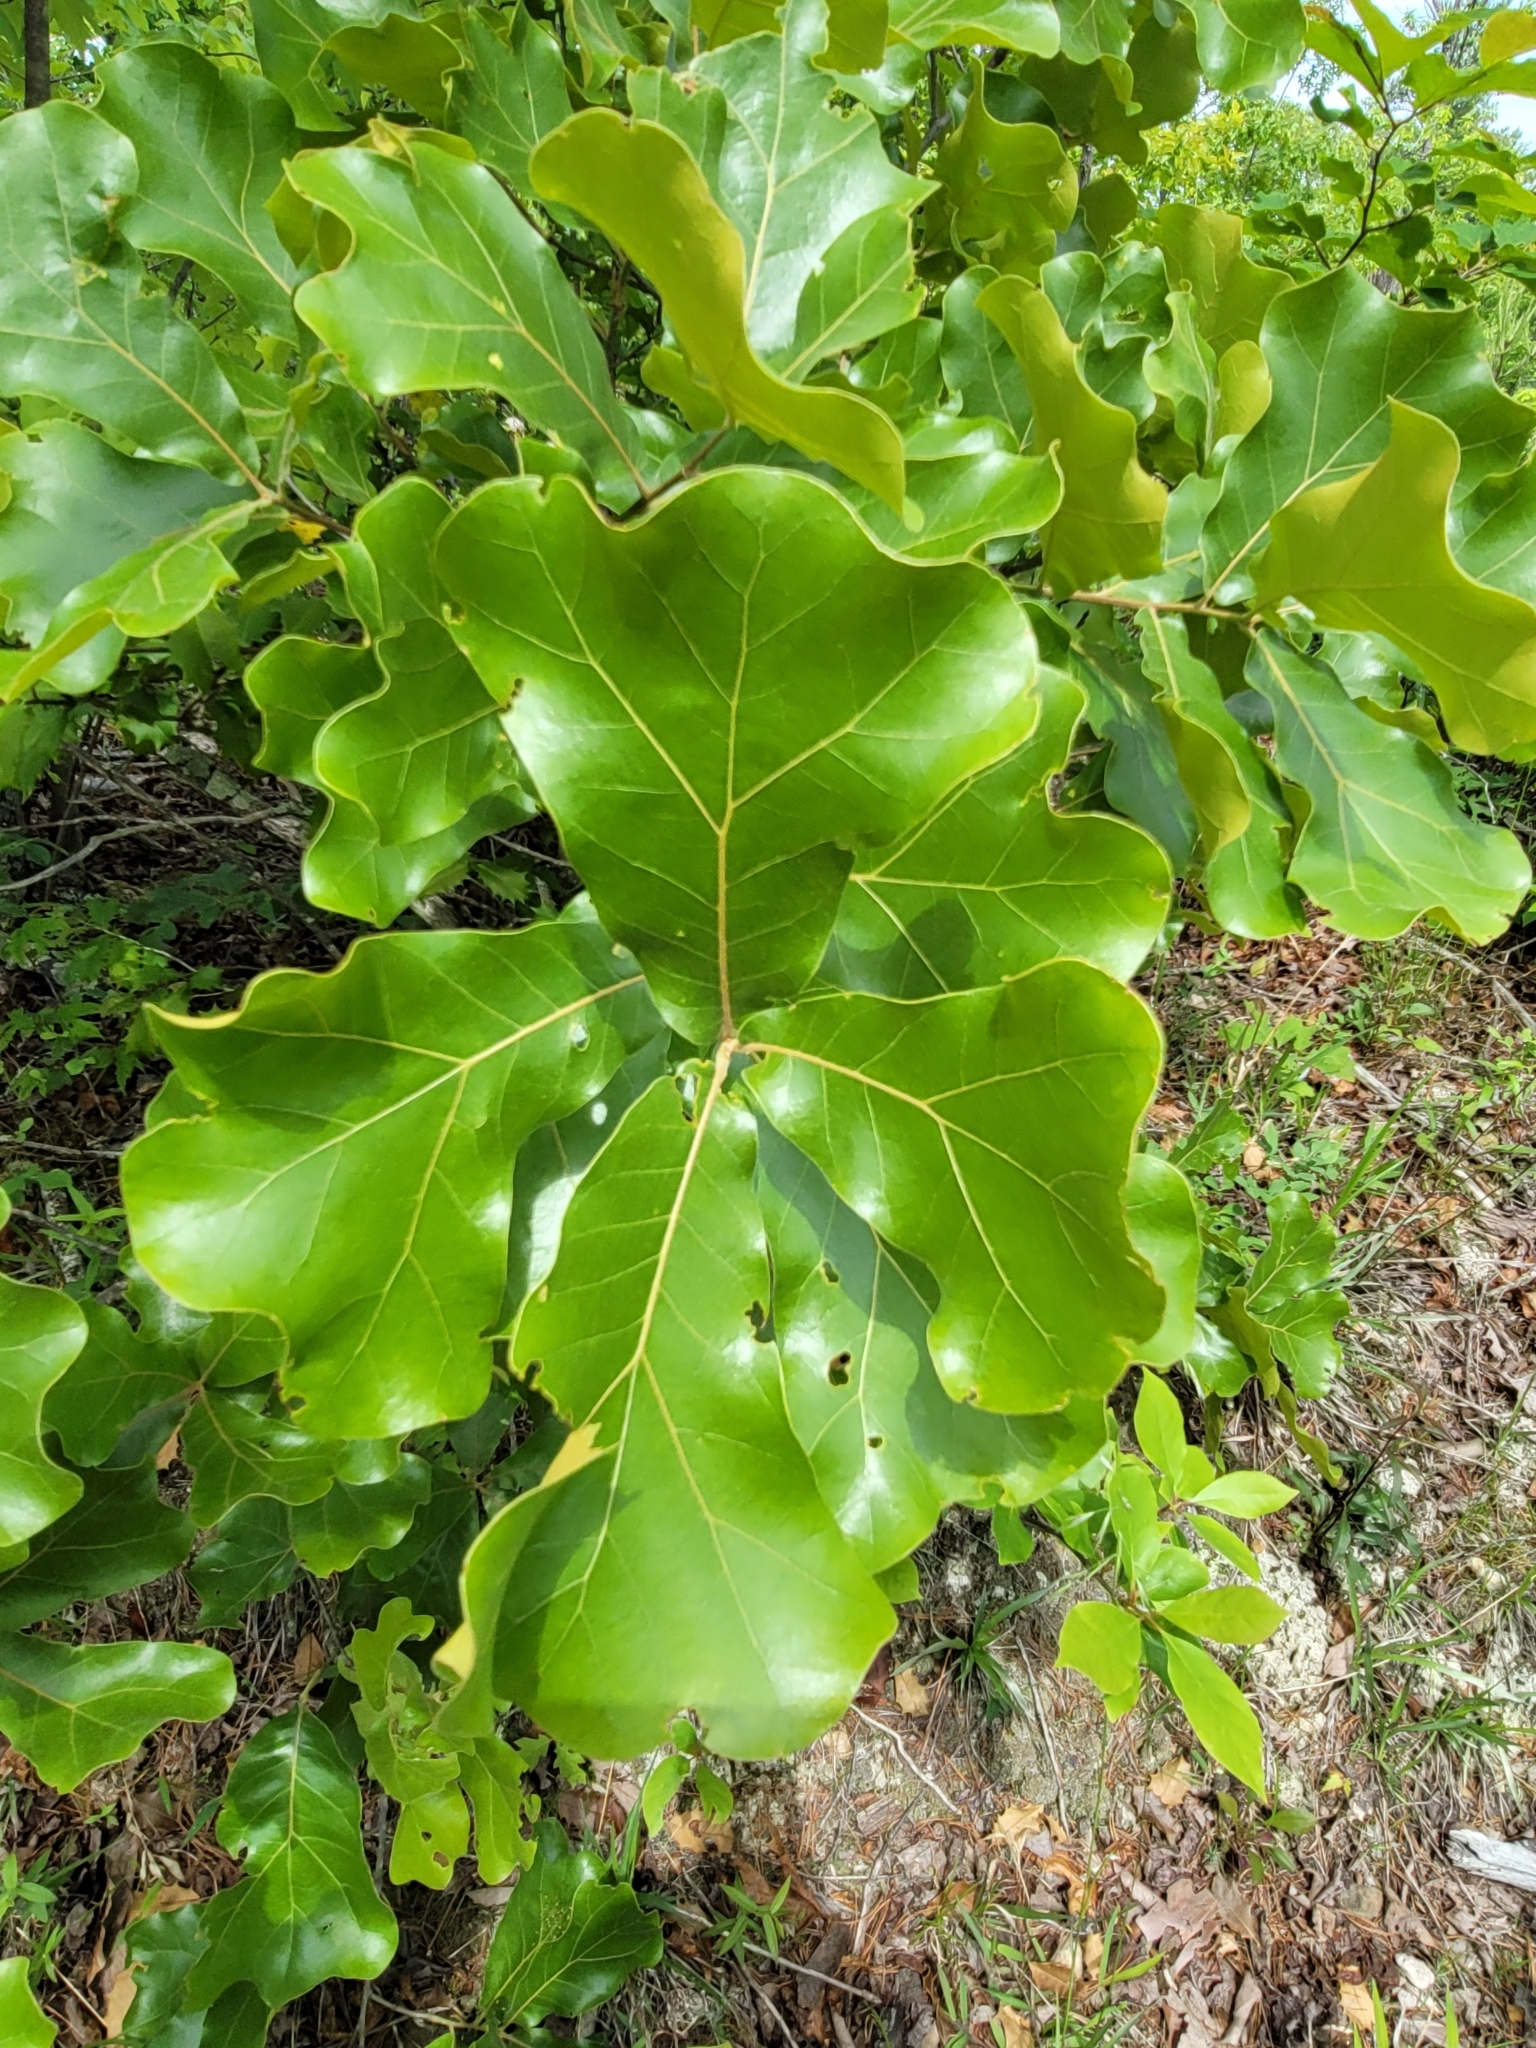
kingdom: Plantae
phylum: Tracheophyta
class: Magnoliopsida
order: Fagales
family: Fagaceae
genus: Quercus
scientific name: Quercus marilandica
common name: Blackjack oak
